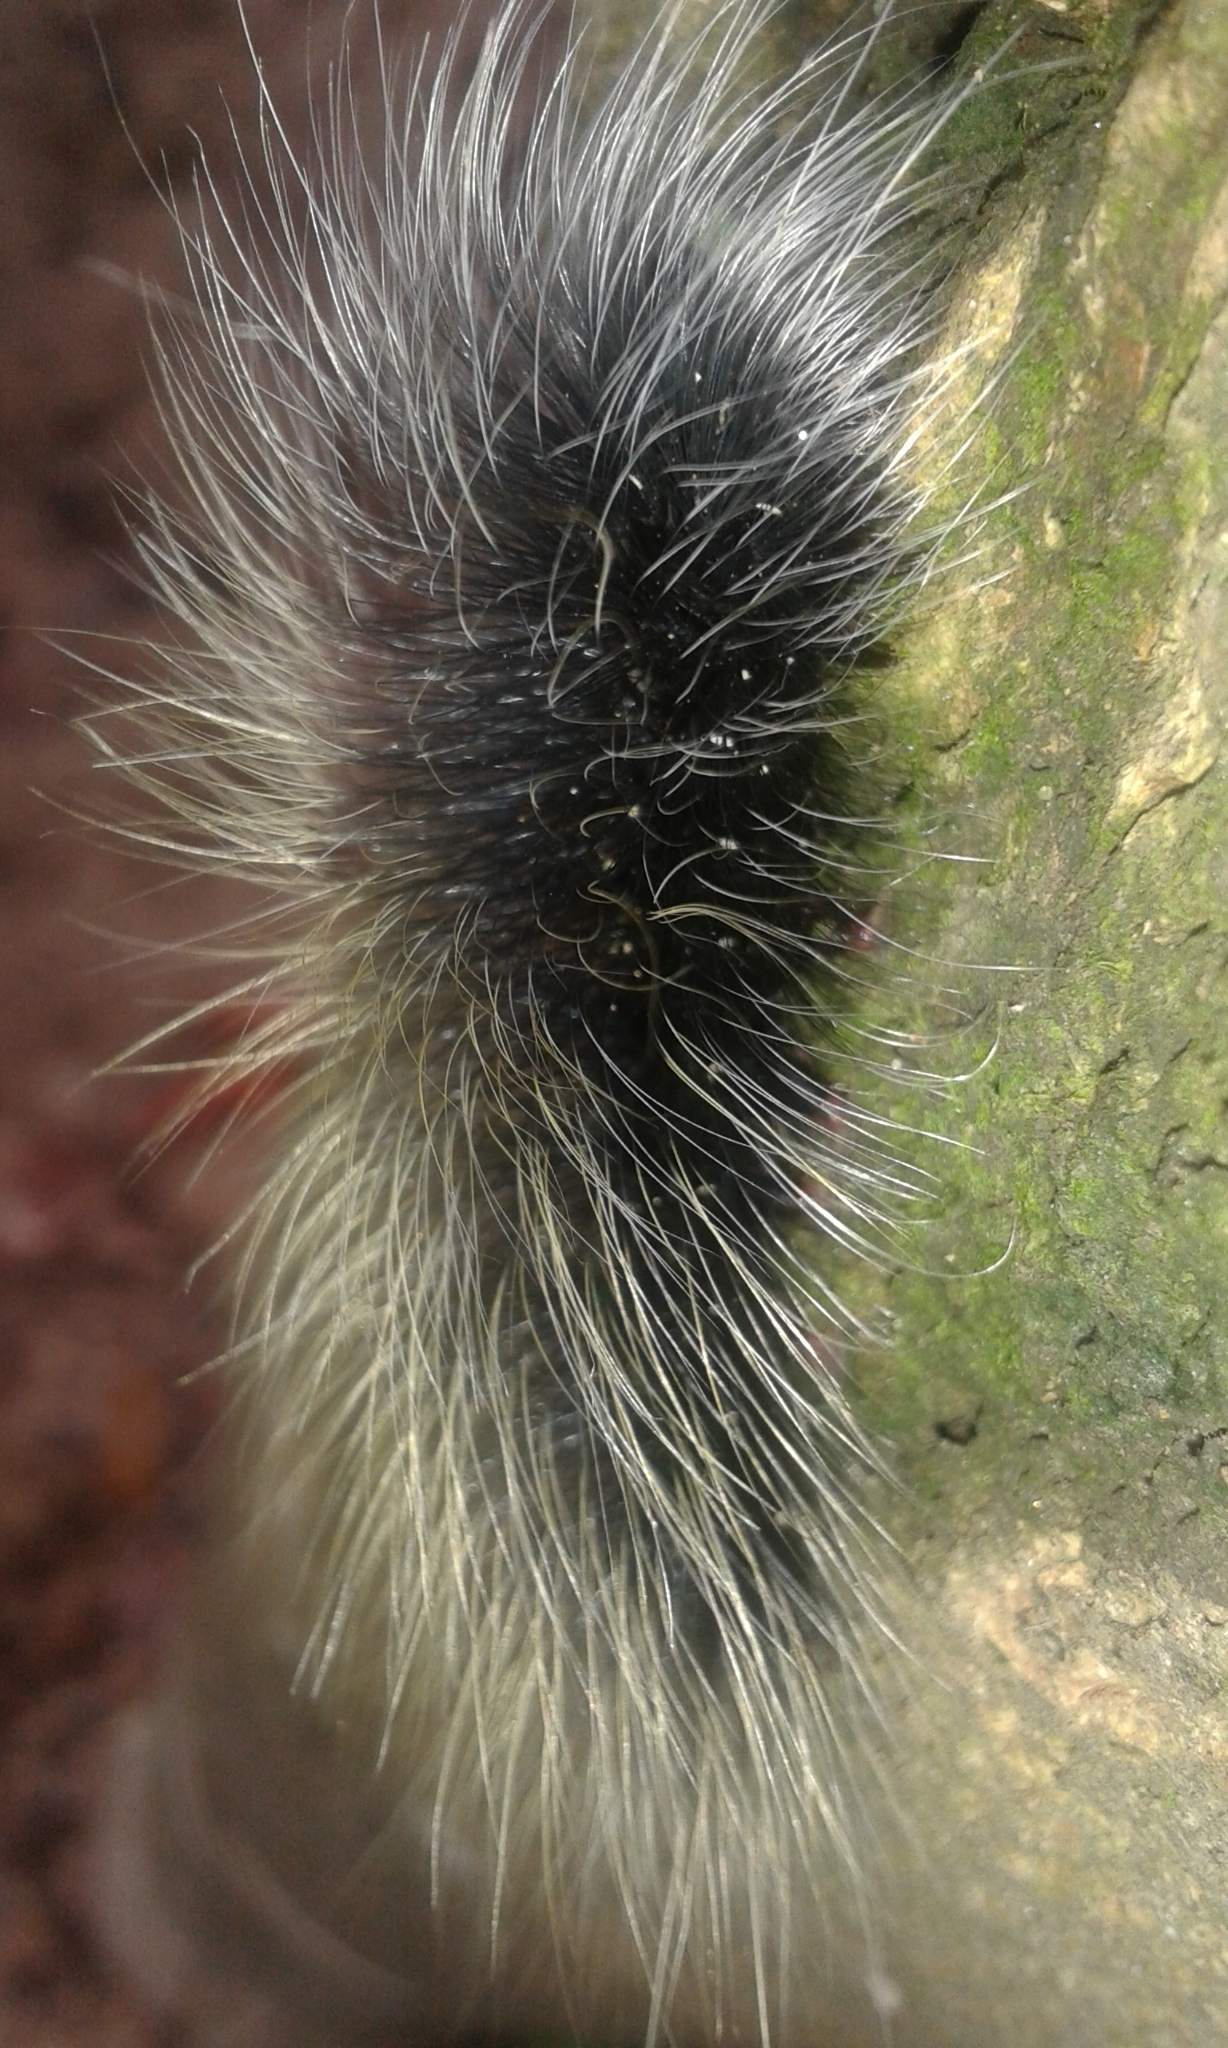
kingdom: Animalia
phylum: Arthropoda
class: Insecta
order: Lepidoptera
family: Erebidae
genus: Macrobrochis
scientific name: Macrobrochis gigas
